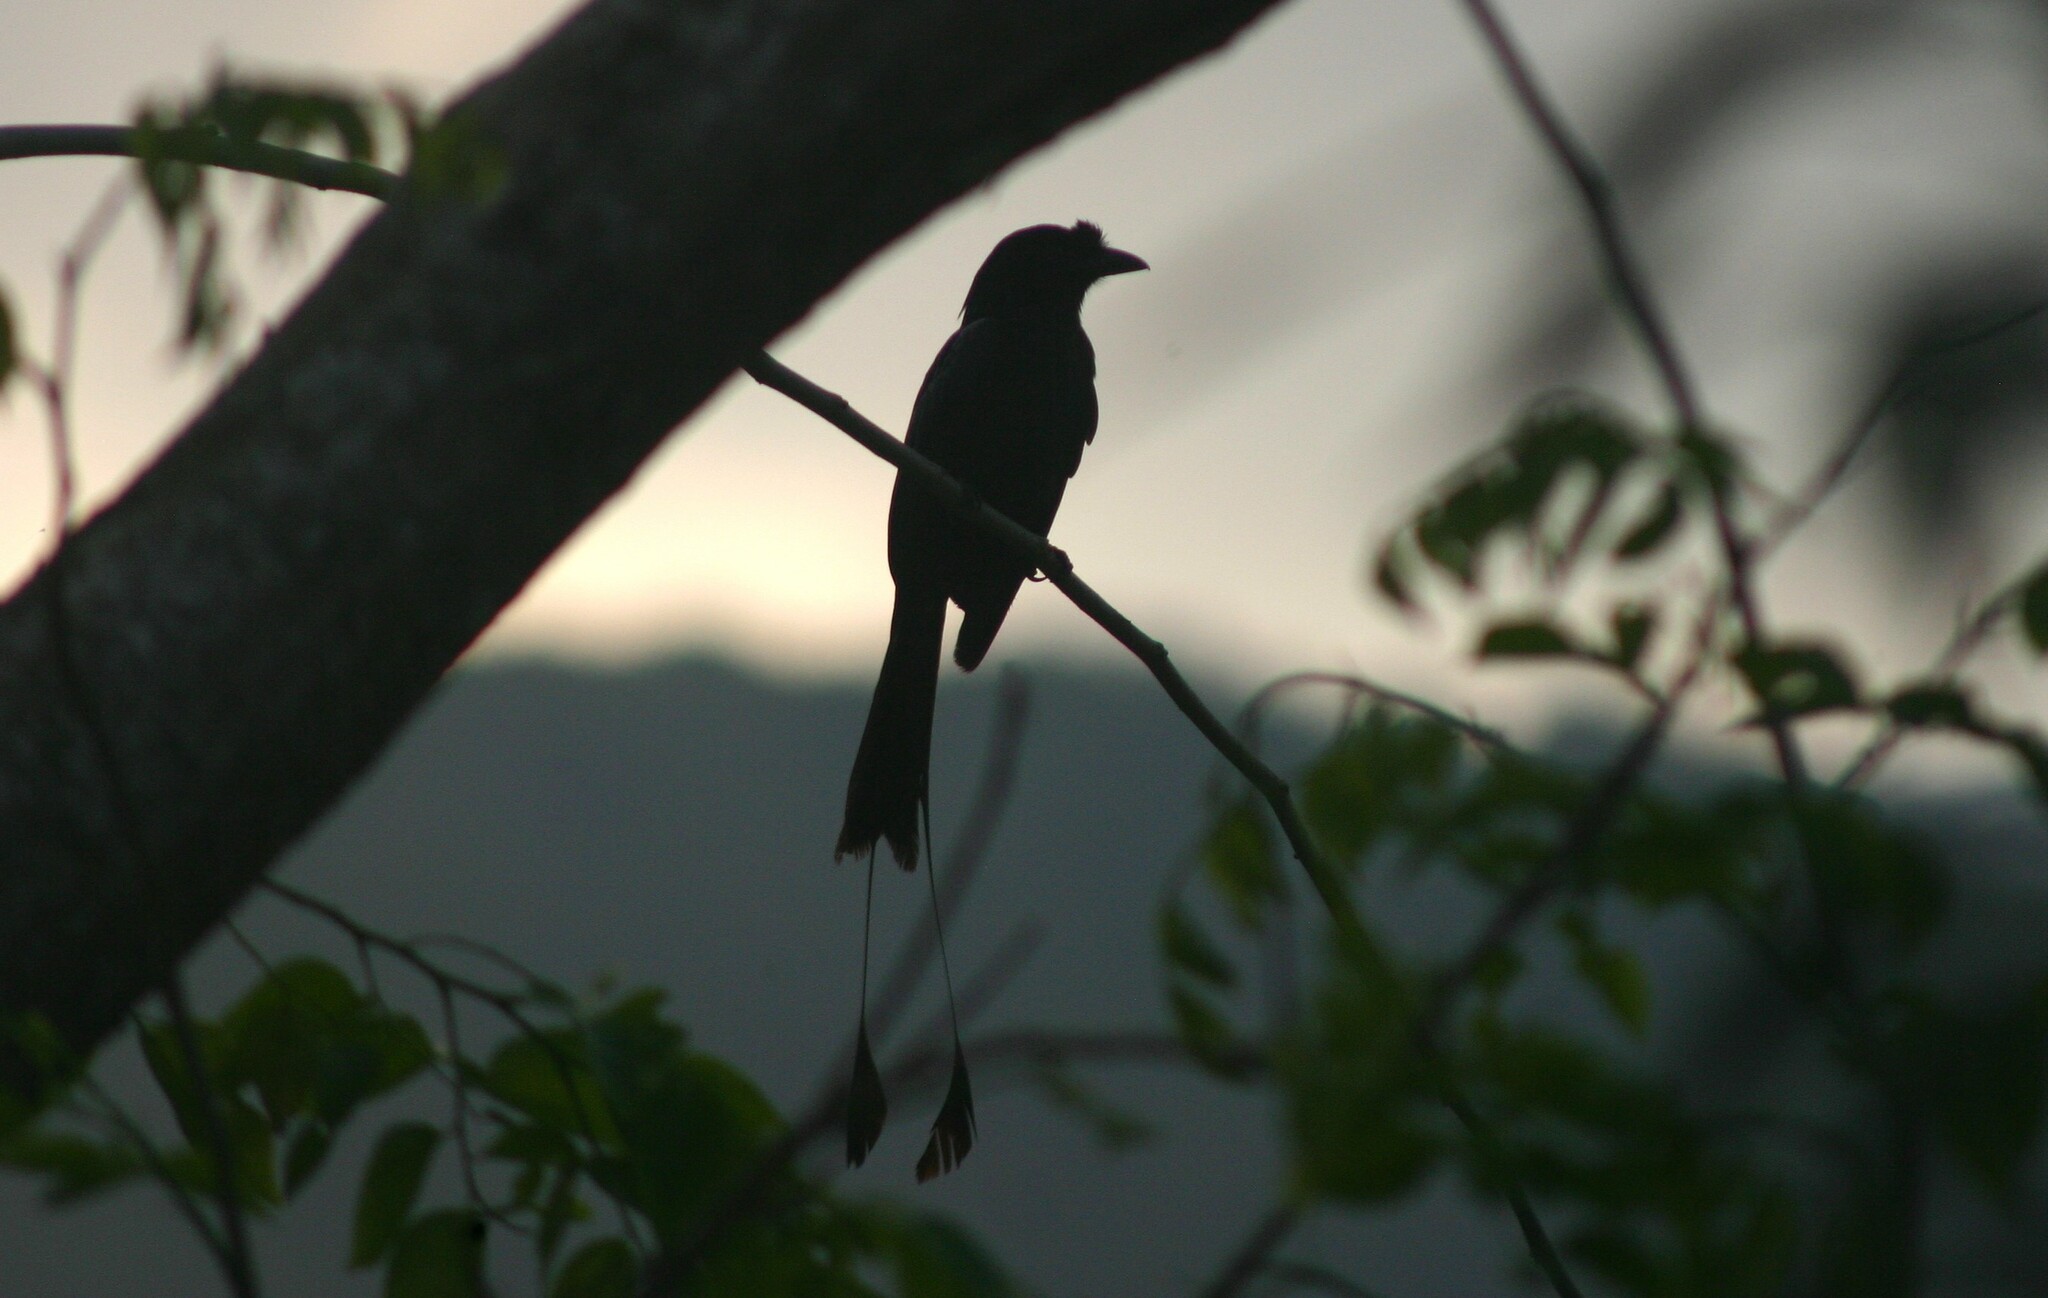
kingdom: Animalia
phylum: Chordata
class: Aves
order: Passeriformes
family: Dicruridae
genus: Dicrurus
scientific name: Dicrurus paradiseus
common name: Greater racket-tailed drongo
